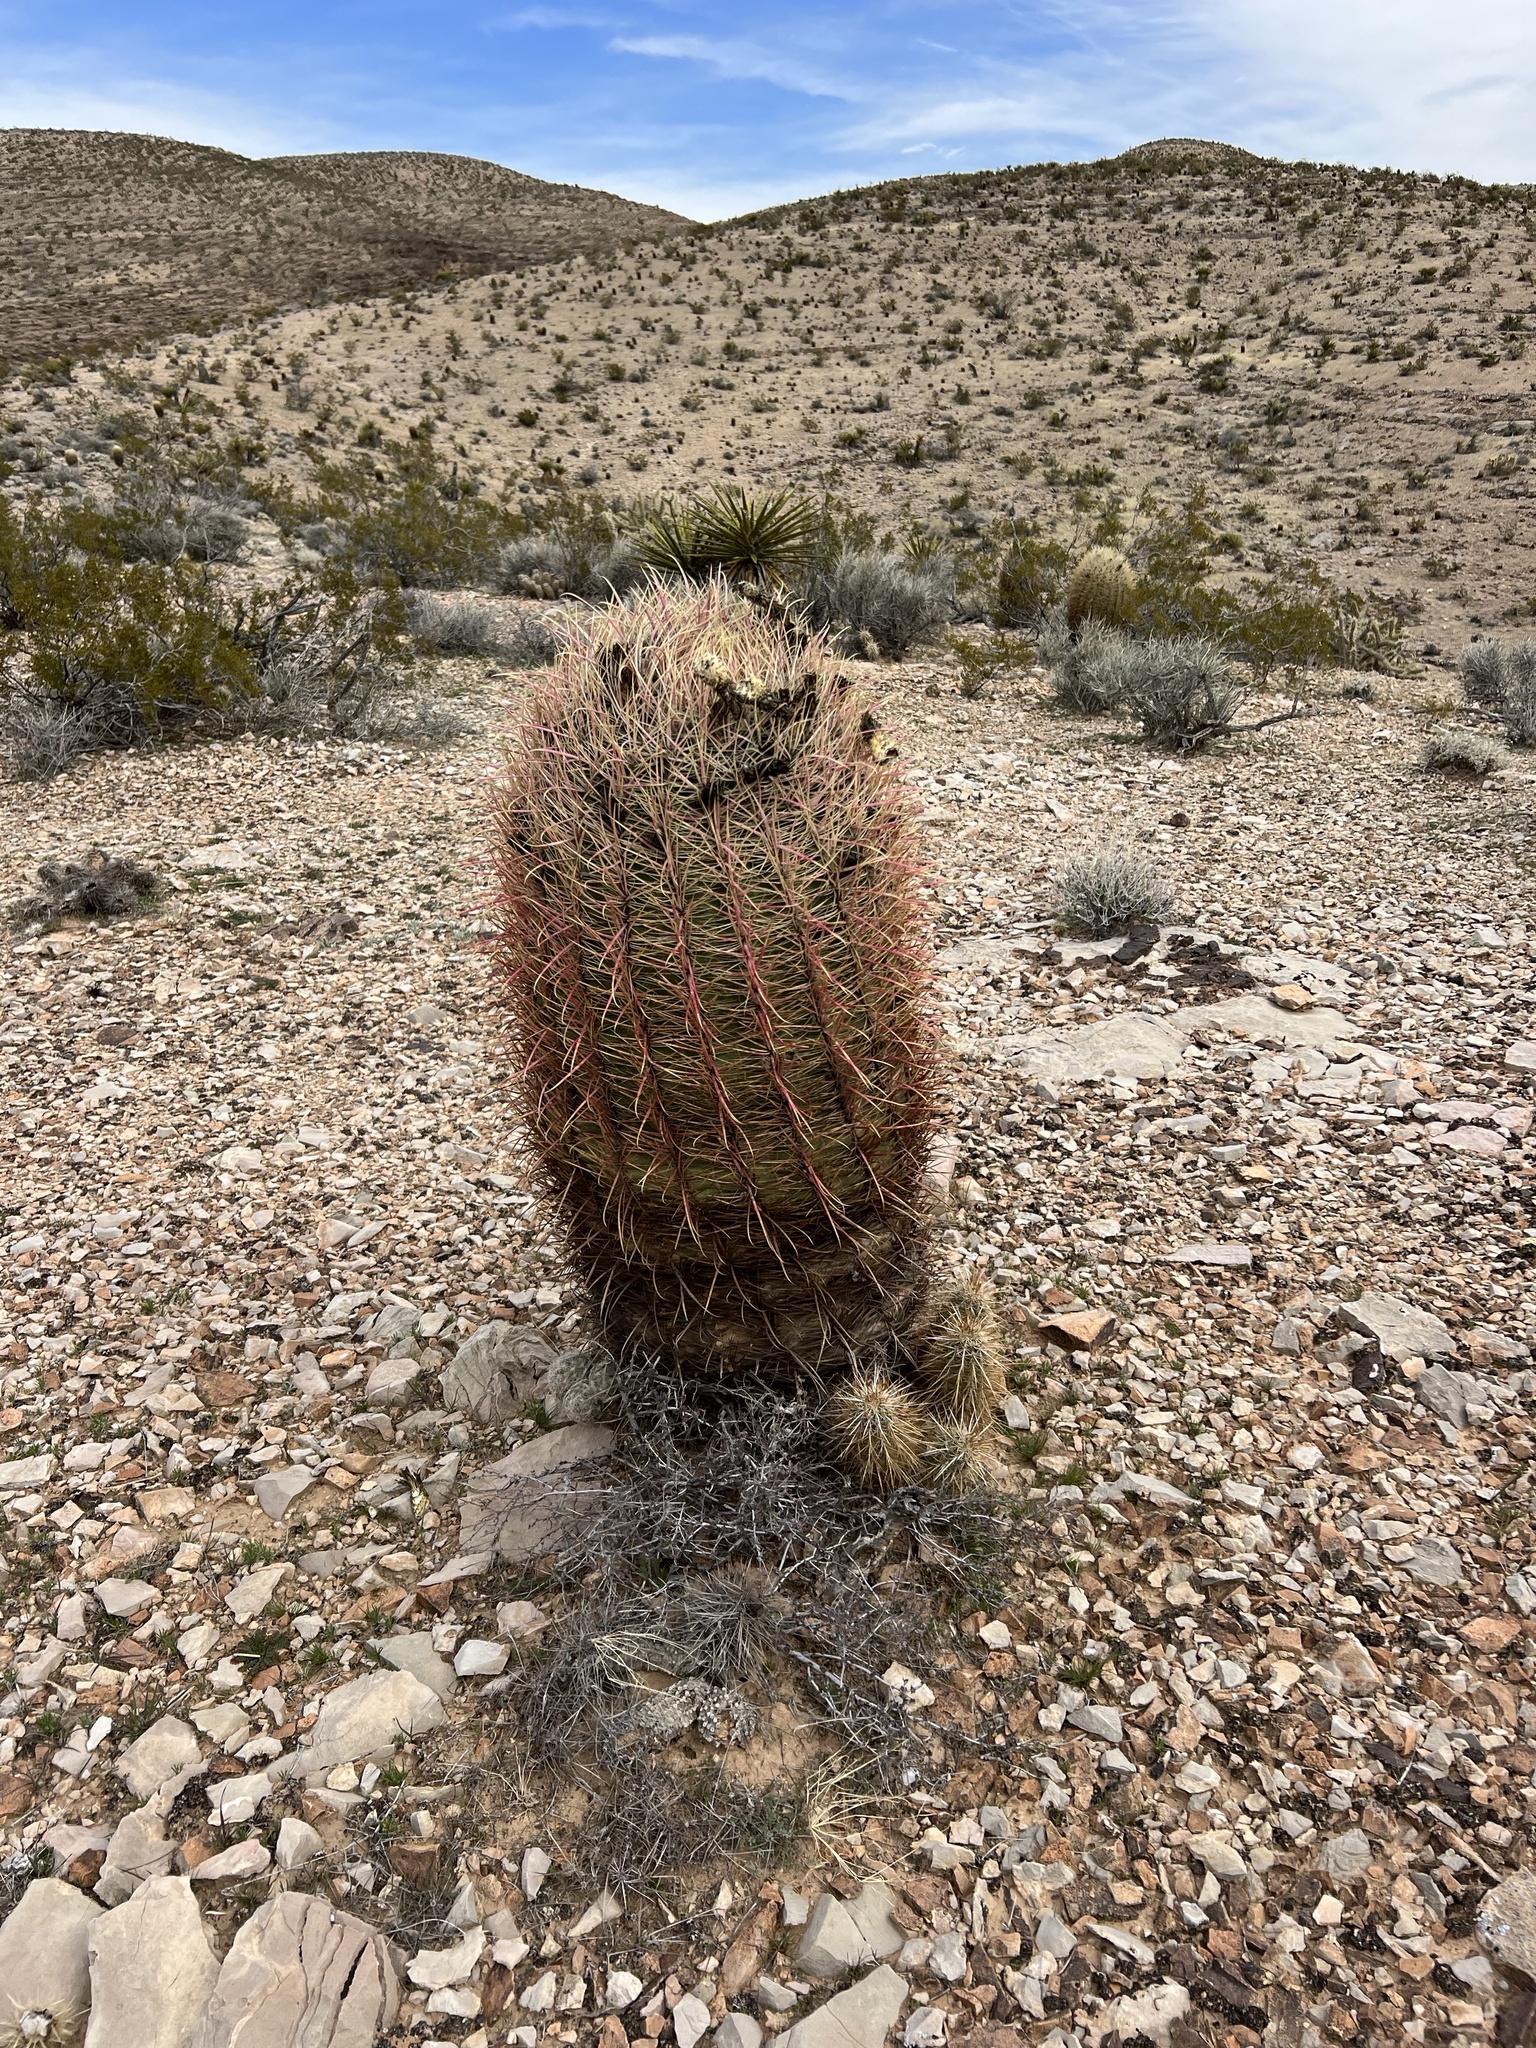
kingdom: Plantae
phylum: Tracheophyta
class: Magnoliopsida
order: Caryophyllales
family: Cactaceae
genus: Ferocactus
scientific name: Ferocactus cylindraceus
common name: California barrel cactus
